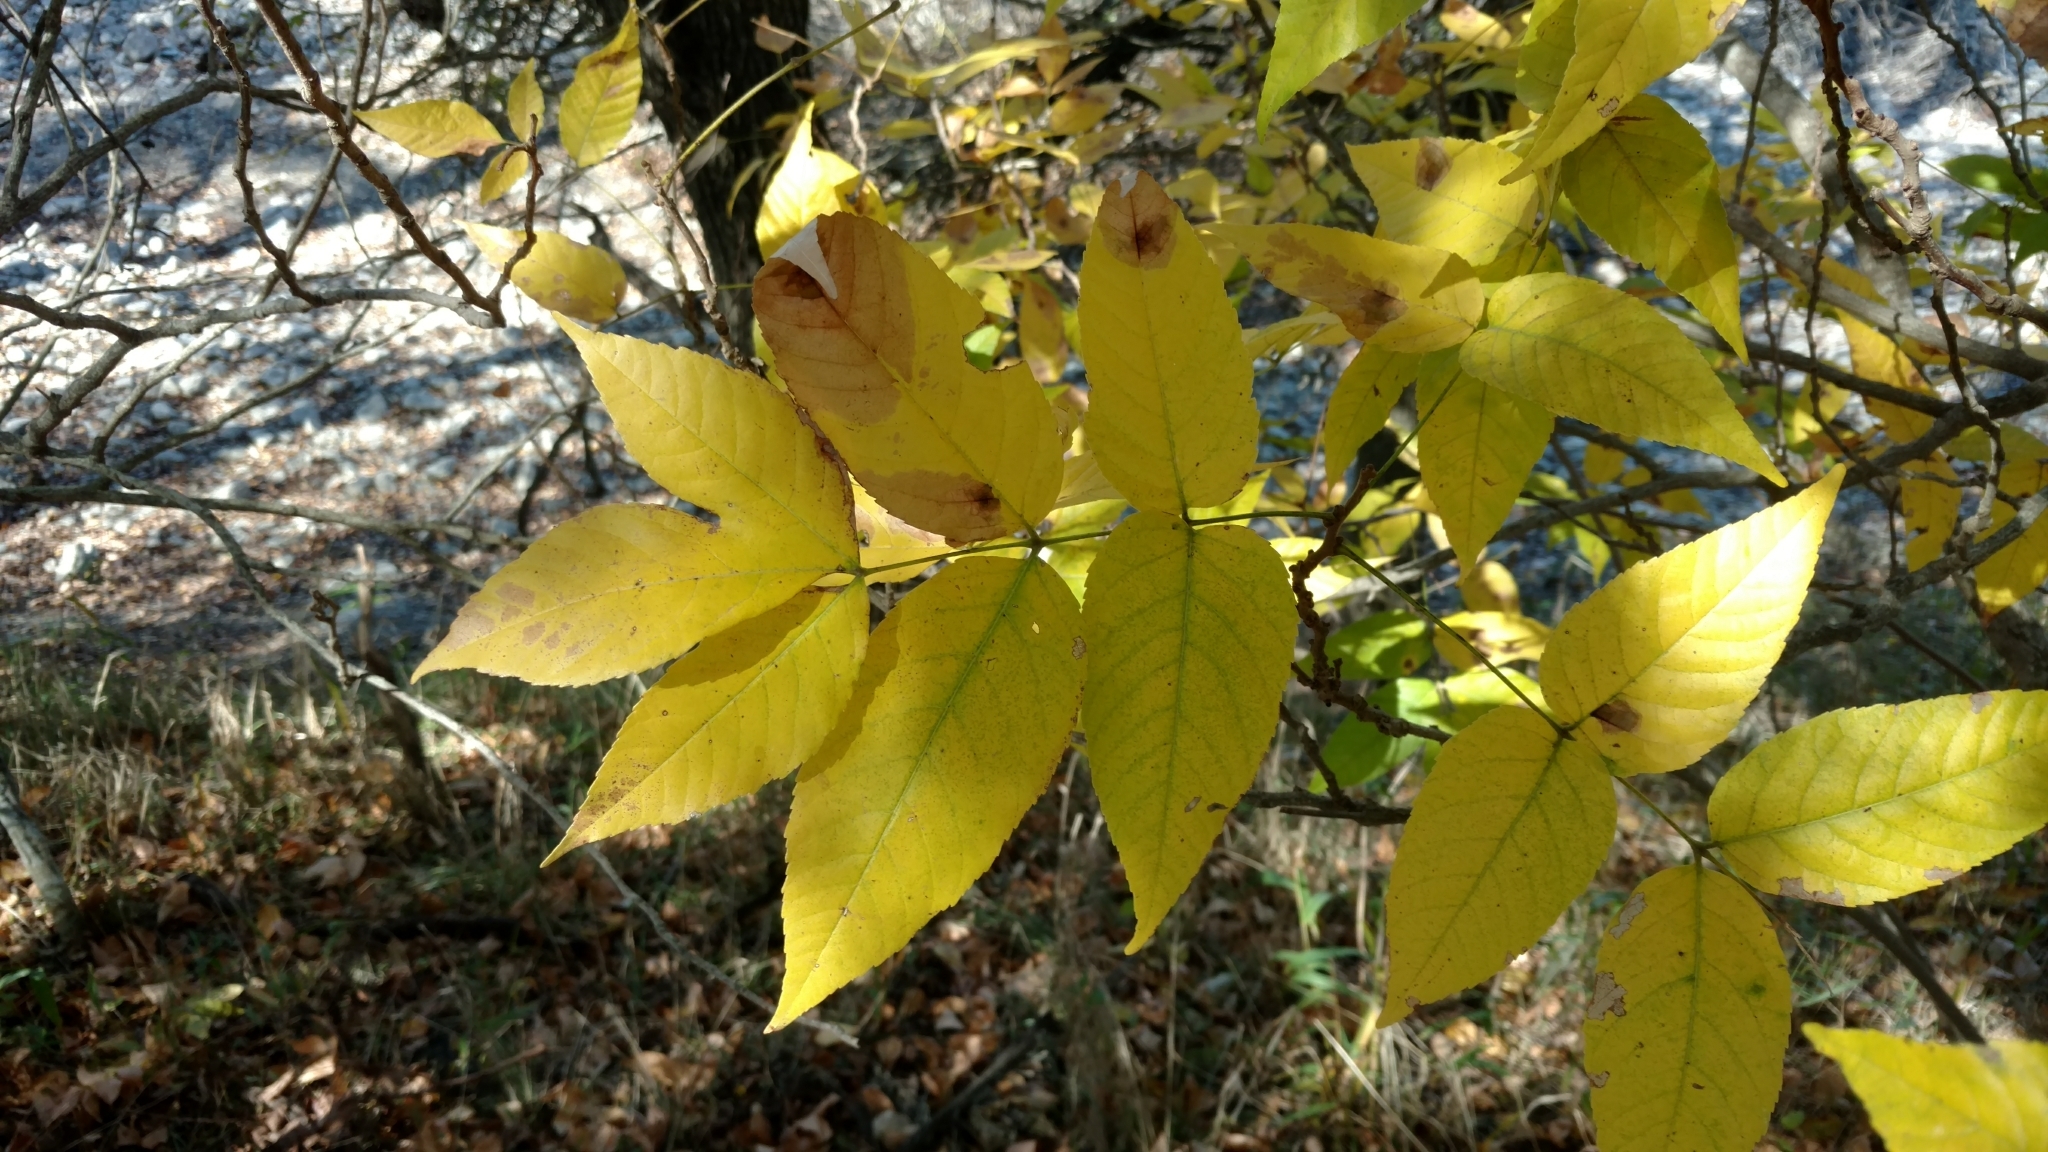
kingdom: Plantae
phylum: Tracheophyta
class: Magnoliopsida
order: Sapindales
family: Sapindaceae
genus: Ungnadia
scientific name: Ungnadia speciosa
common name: Texas-buckeye
